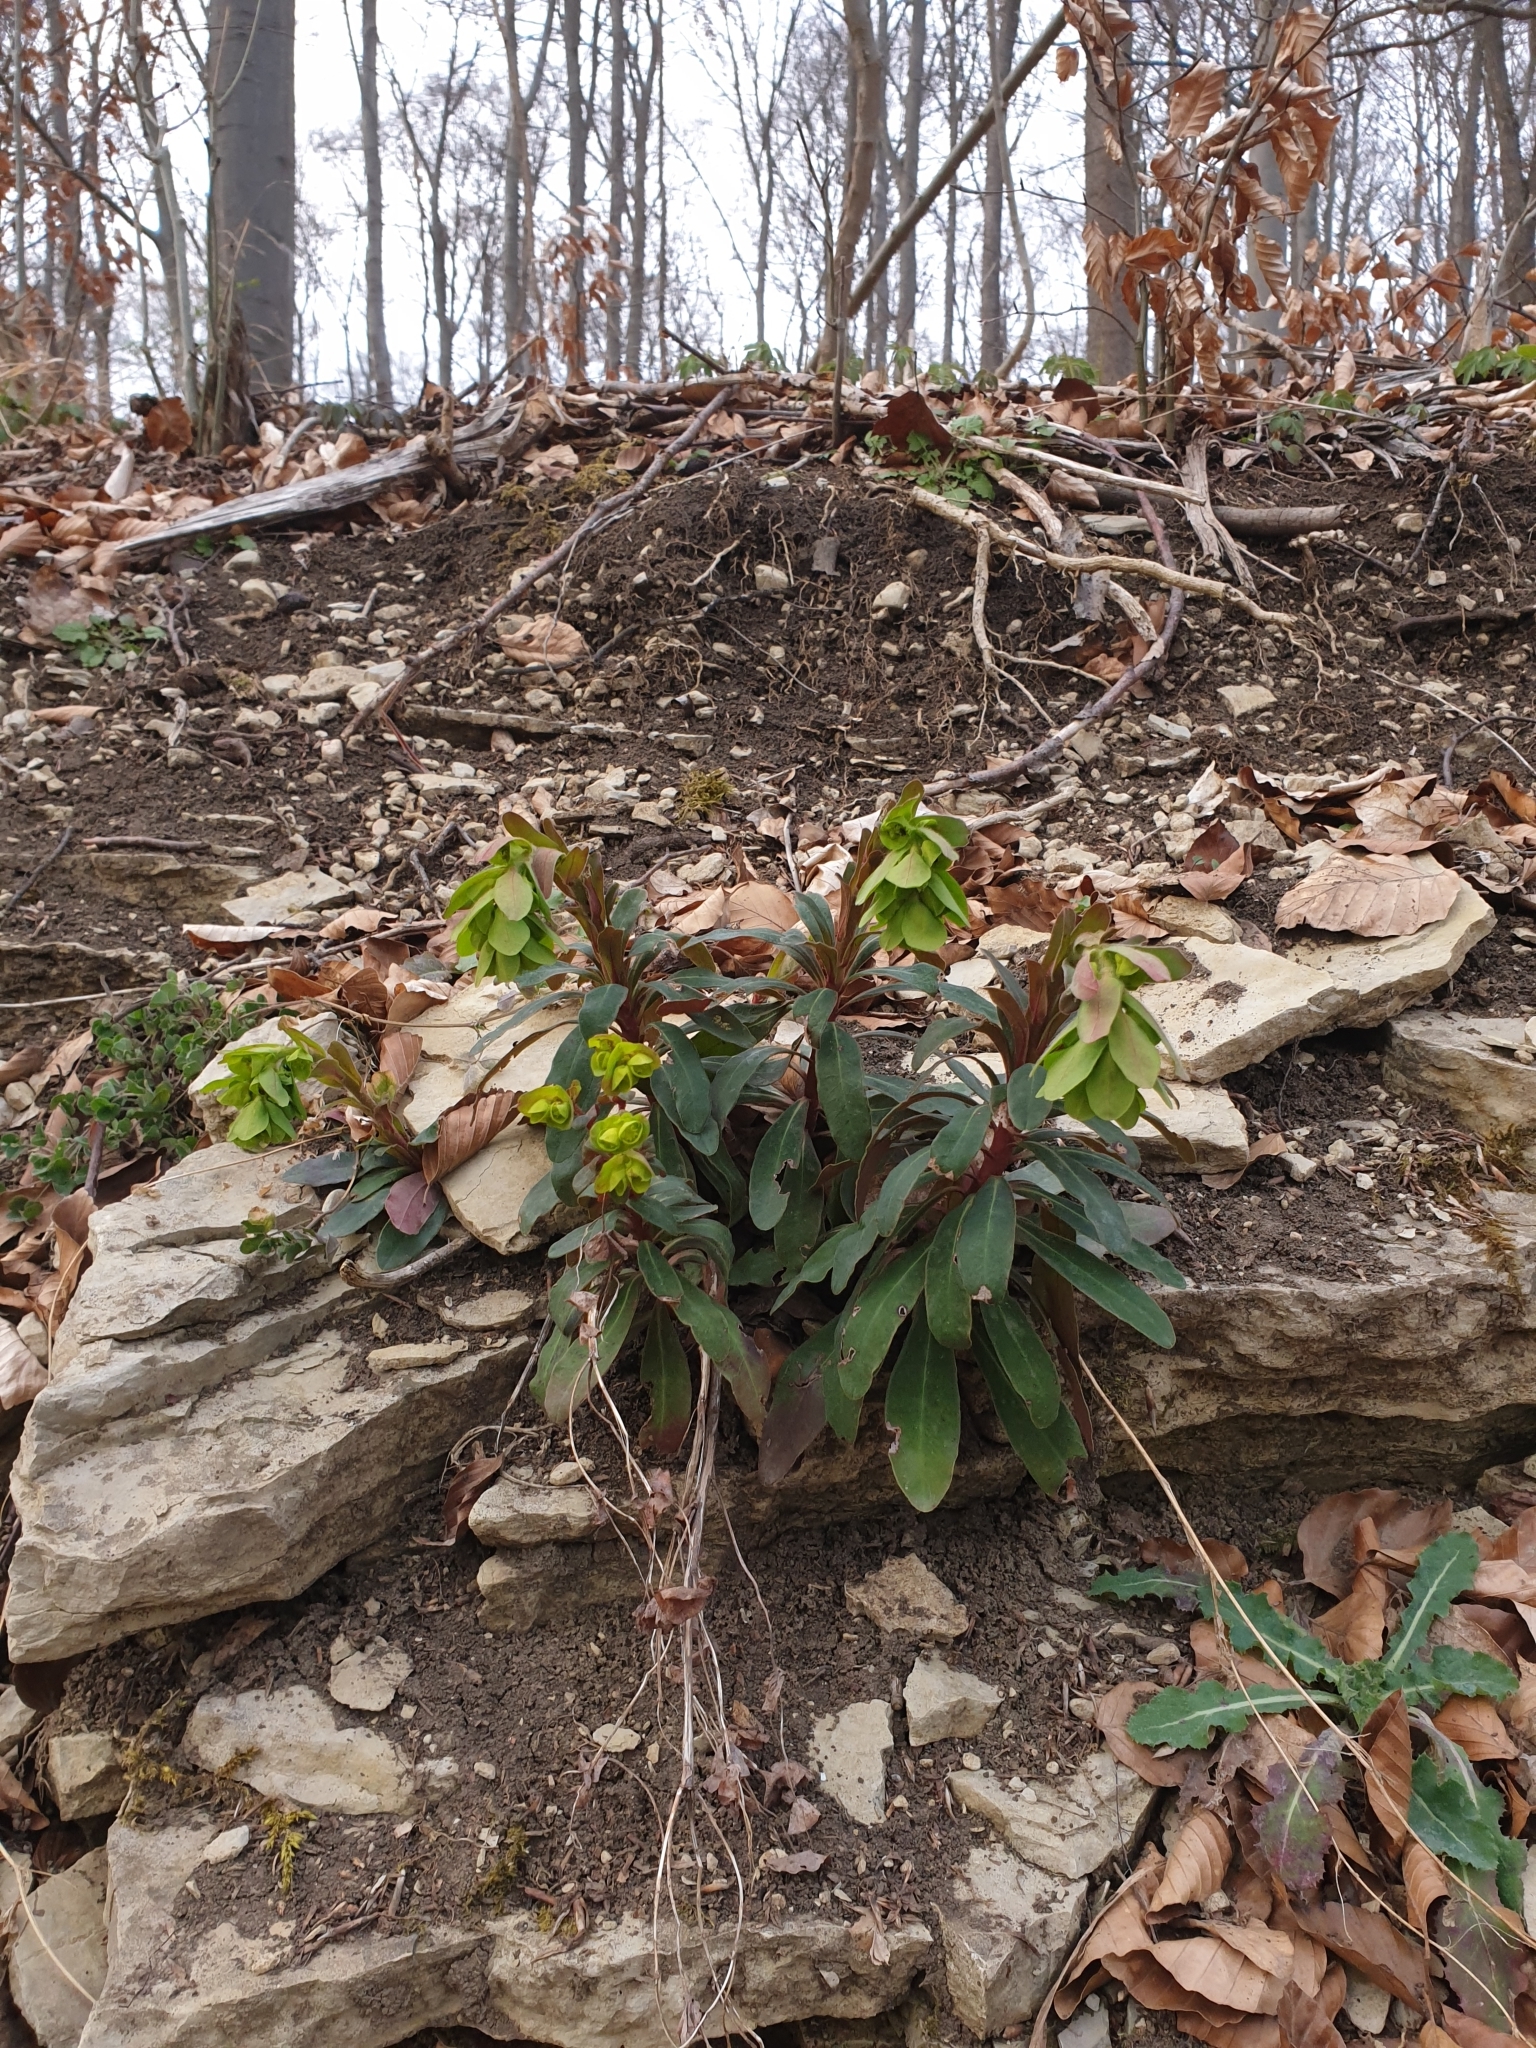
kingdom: Plantae
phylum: Tracheophyta
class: Magnoliopsida
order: Malpighiales
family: Euphorbiaceae
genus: Euphorbia
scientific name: Euphorbia amygdaloides
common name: Wood spurge
